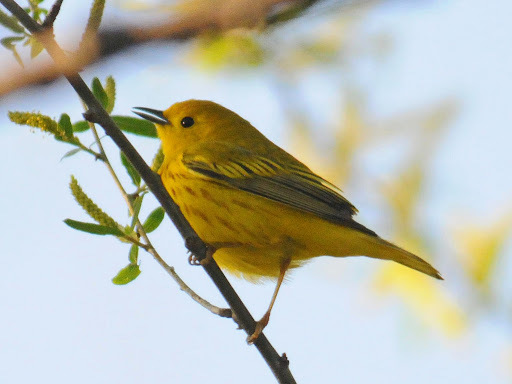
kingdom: Animalia
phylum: Chordata
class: Aves
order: Passeriformes
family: Parulidae
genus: Setophaga
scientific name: Setophaga petechia
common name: Yellow warbler
